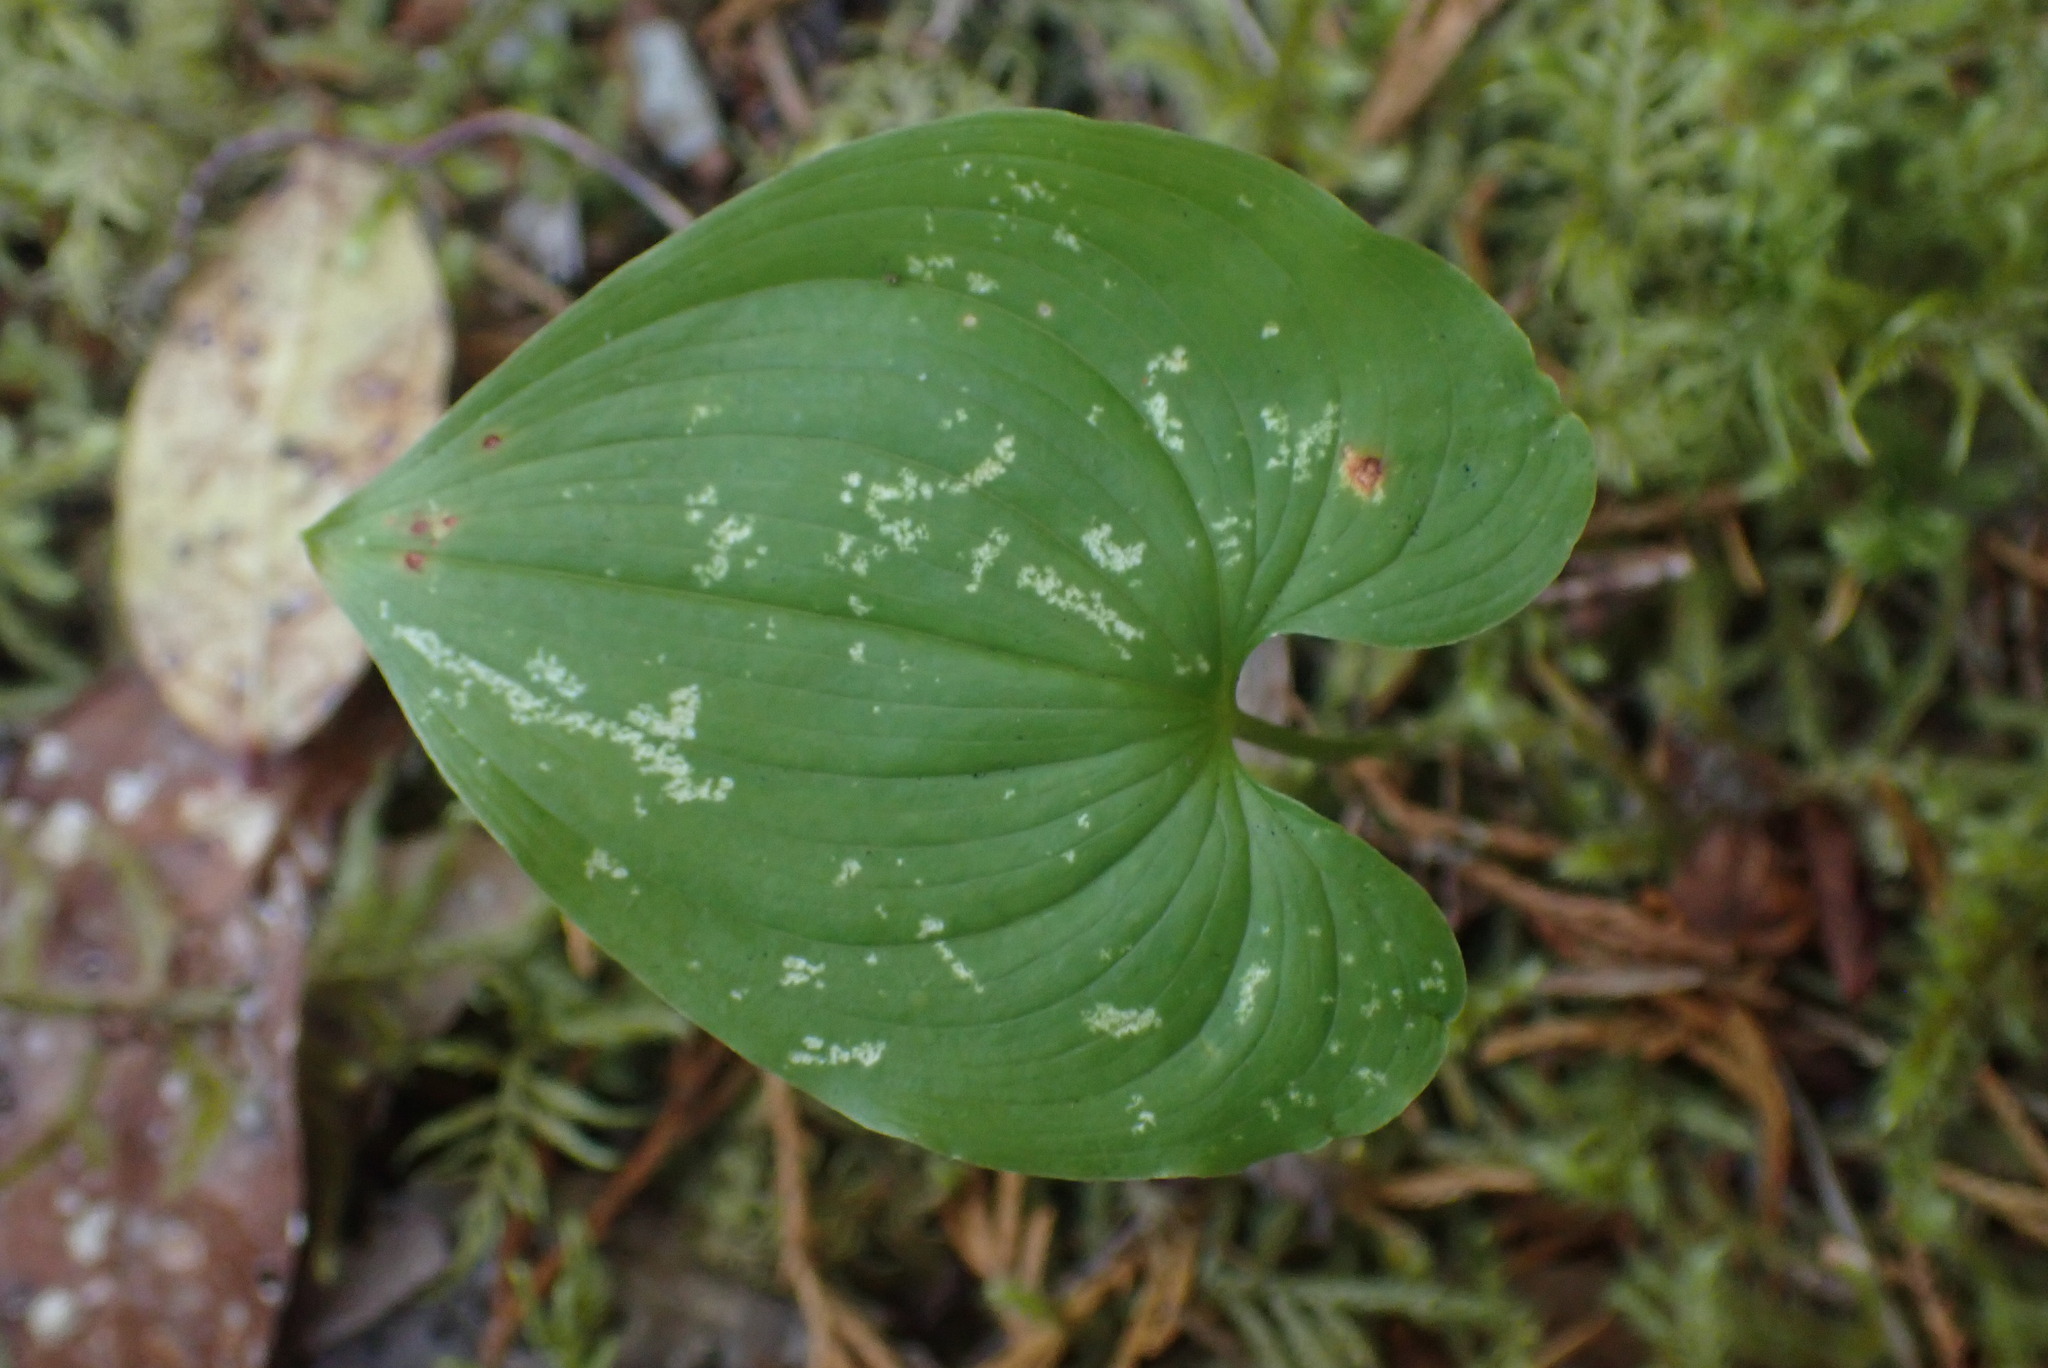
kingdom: Plantae
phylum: Tracheophyta
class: Liliopsida
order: Asparagales
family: Asparagaceae
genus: Maianthemum
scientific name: Maianthemum dilatatum
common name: False lily-of-the-valley
